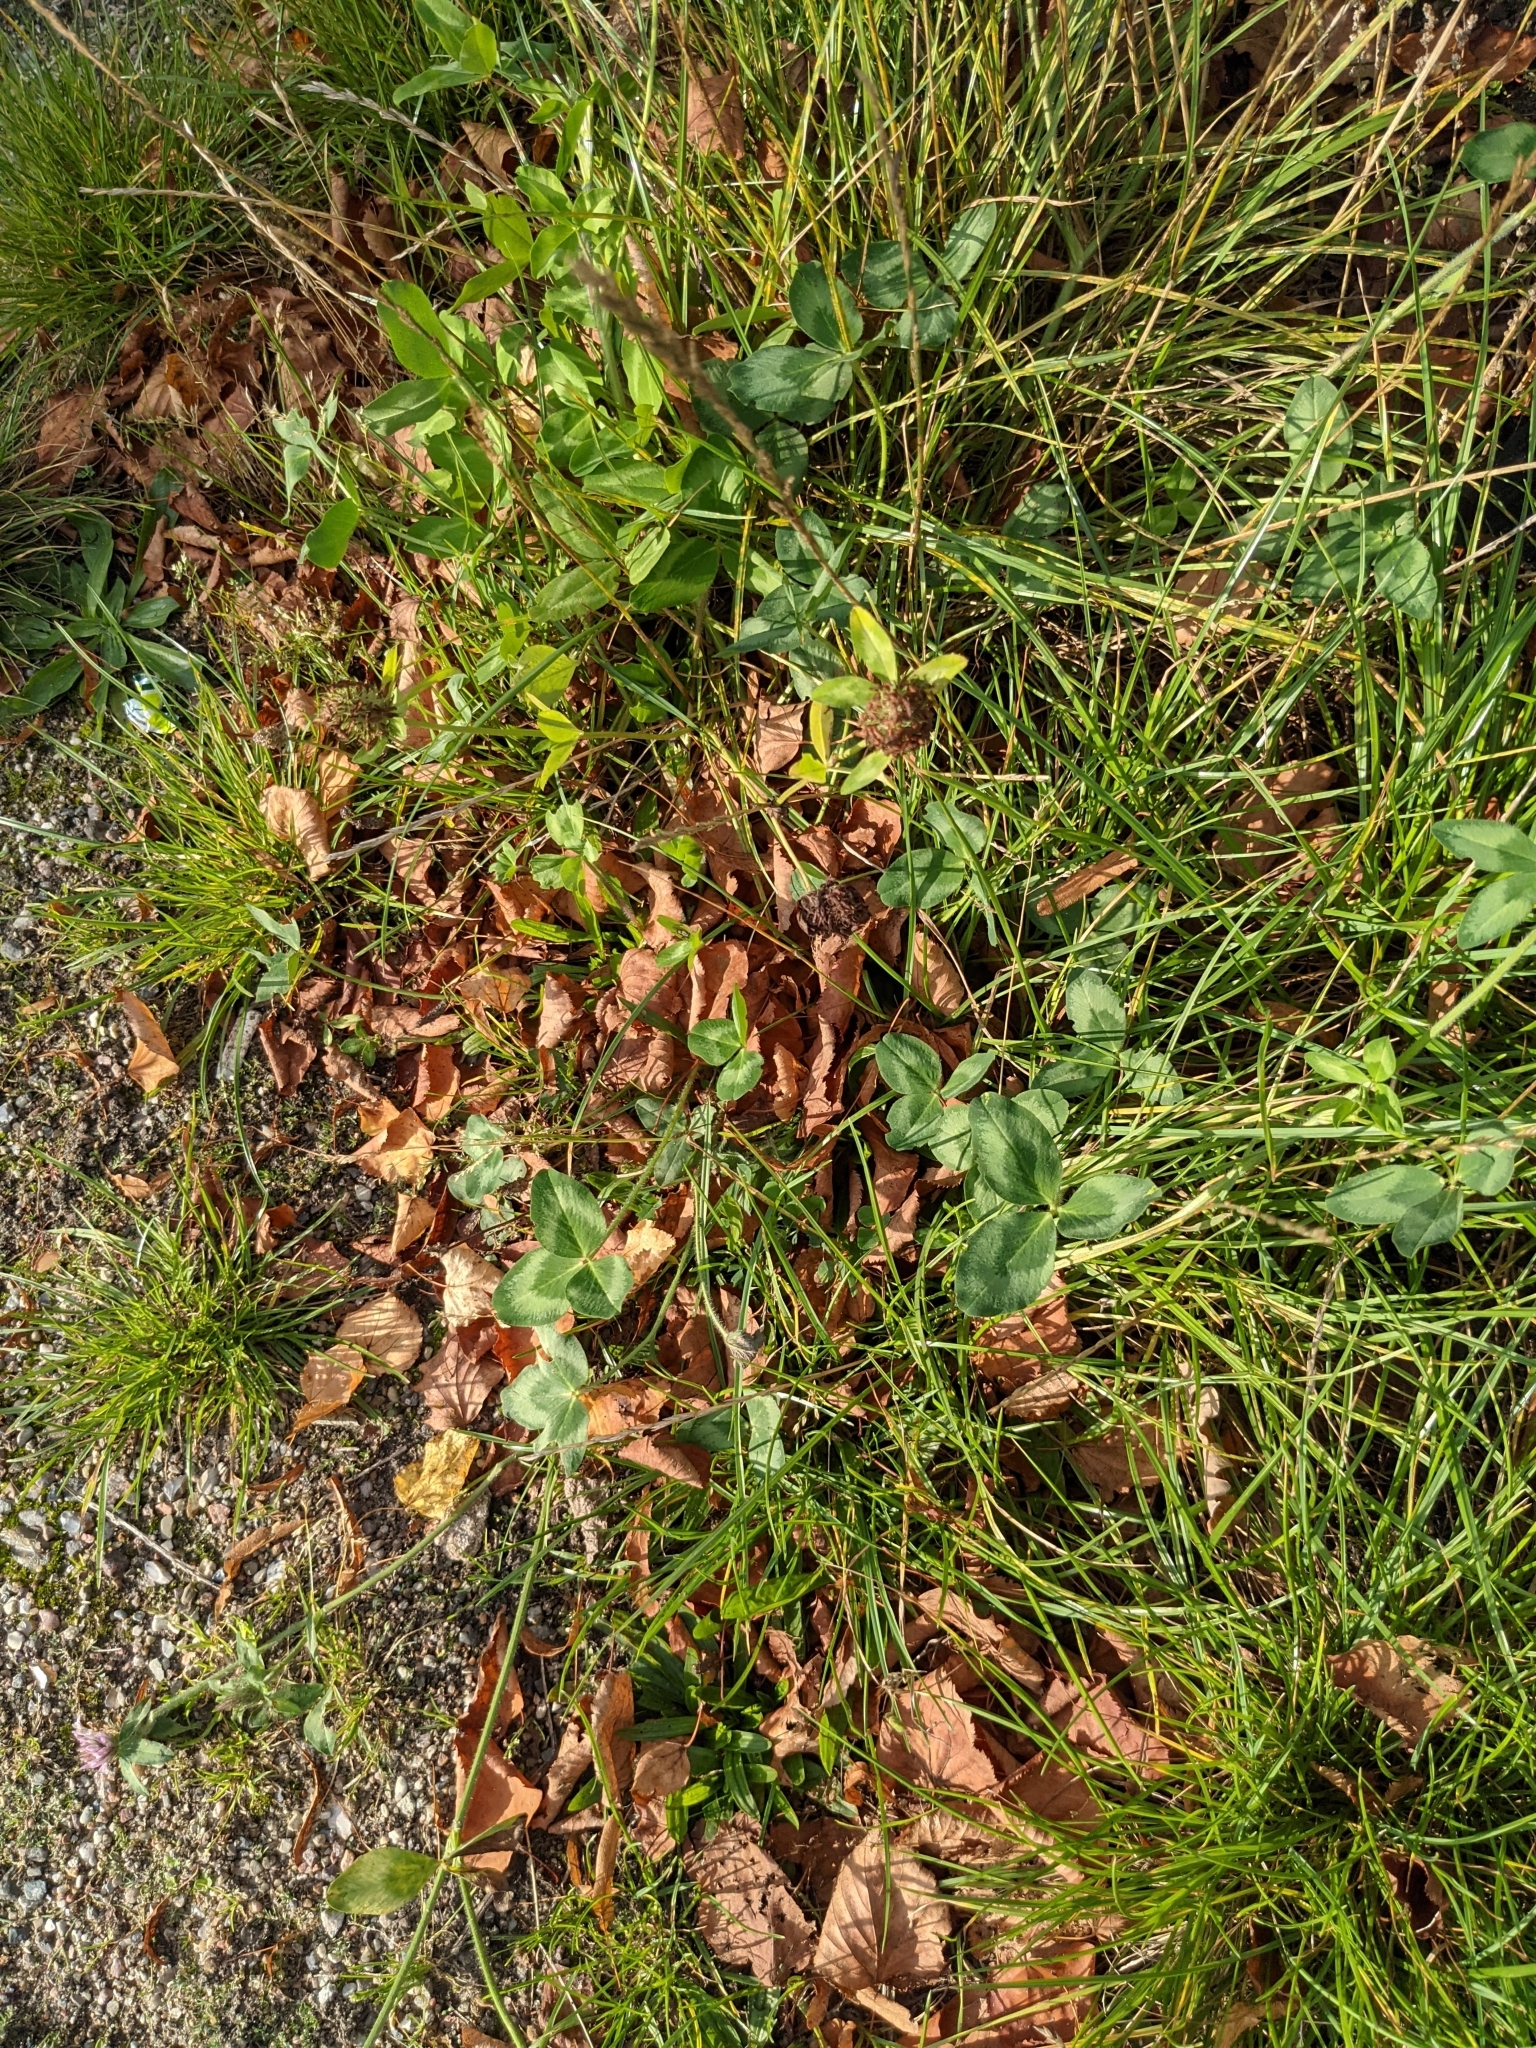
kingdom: Plantae
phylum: Tracheophyta
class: Magnoliopsida
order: Fabales
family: Fabaceae
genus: Trifolium
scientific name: Trifolium pratense
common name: Red clover
